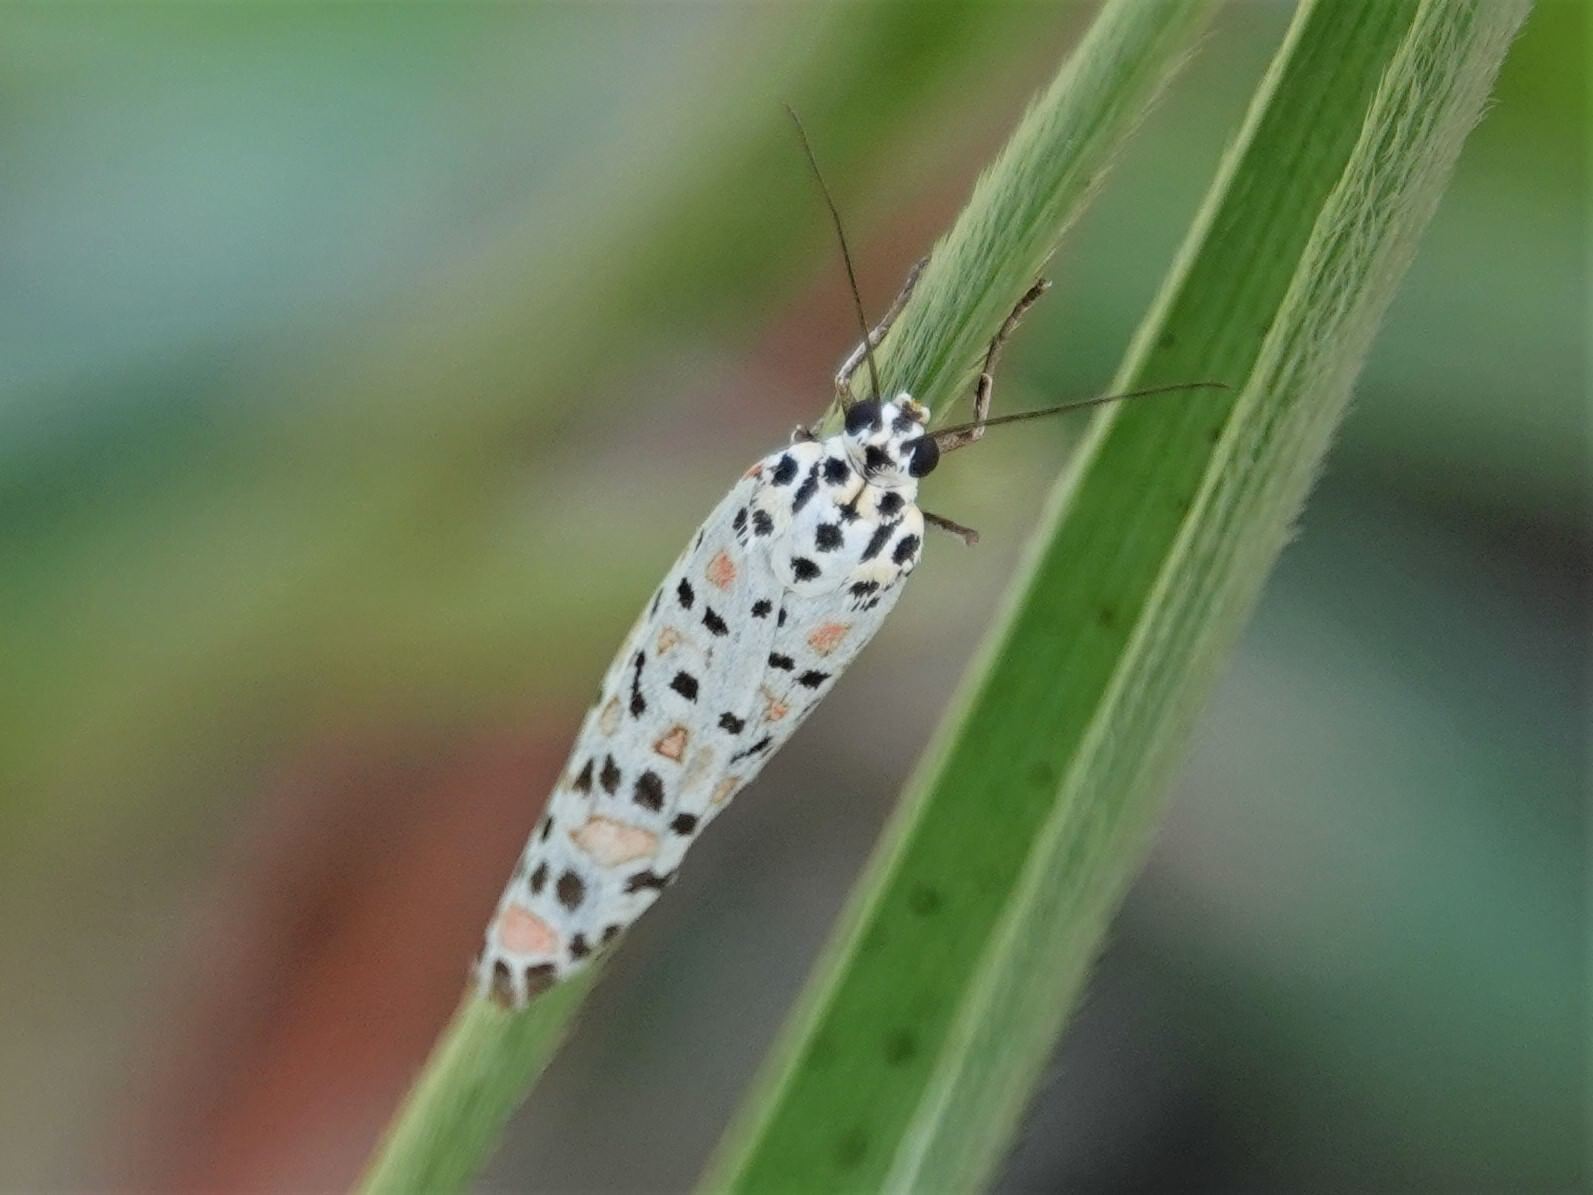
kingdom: Animalia
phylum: Arthropoda
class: Insecta
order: Lepidoptera
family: Erebidae
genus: Utetheisa
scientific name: Utetheisa pulchelloides
